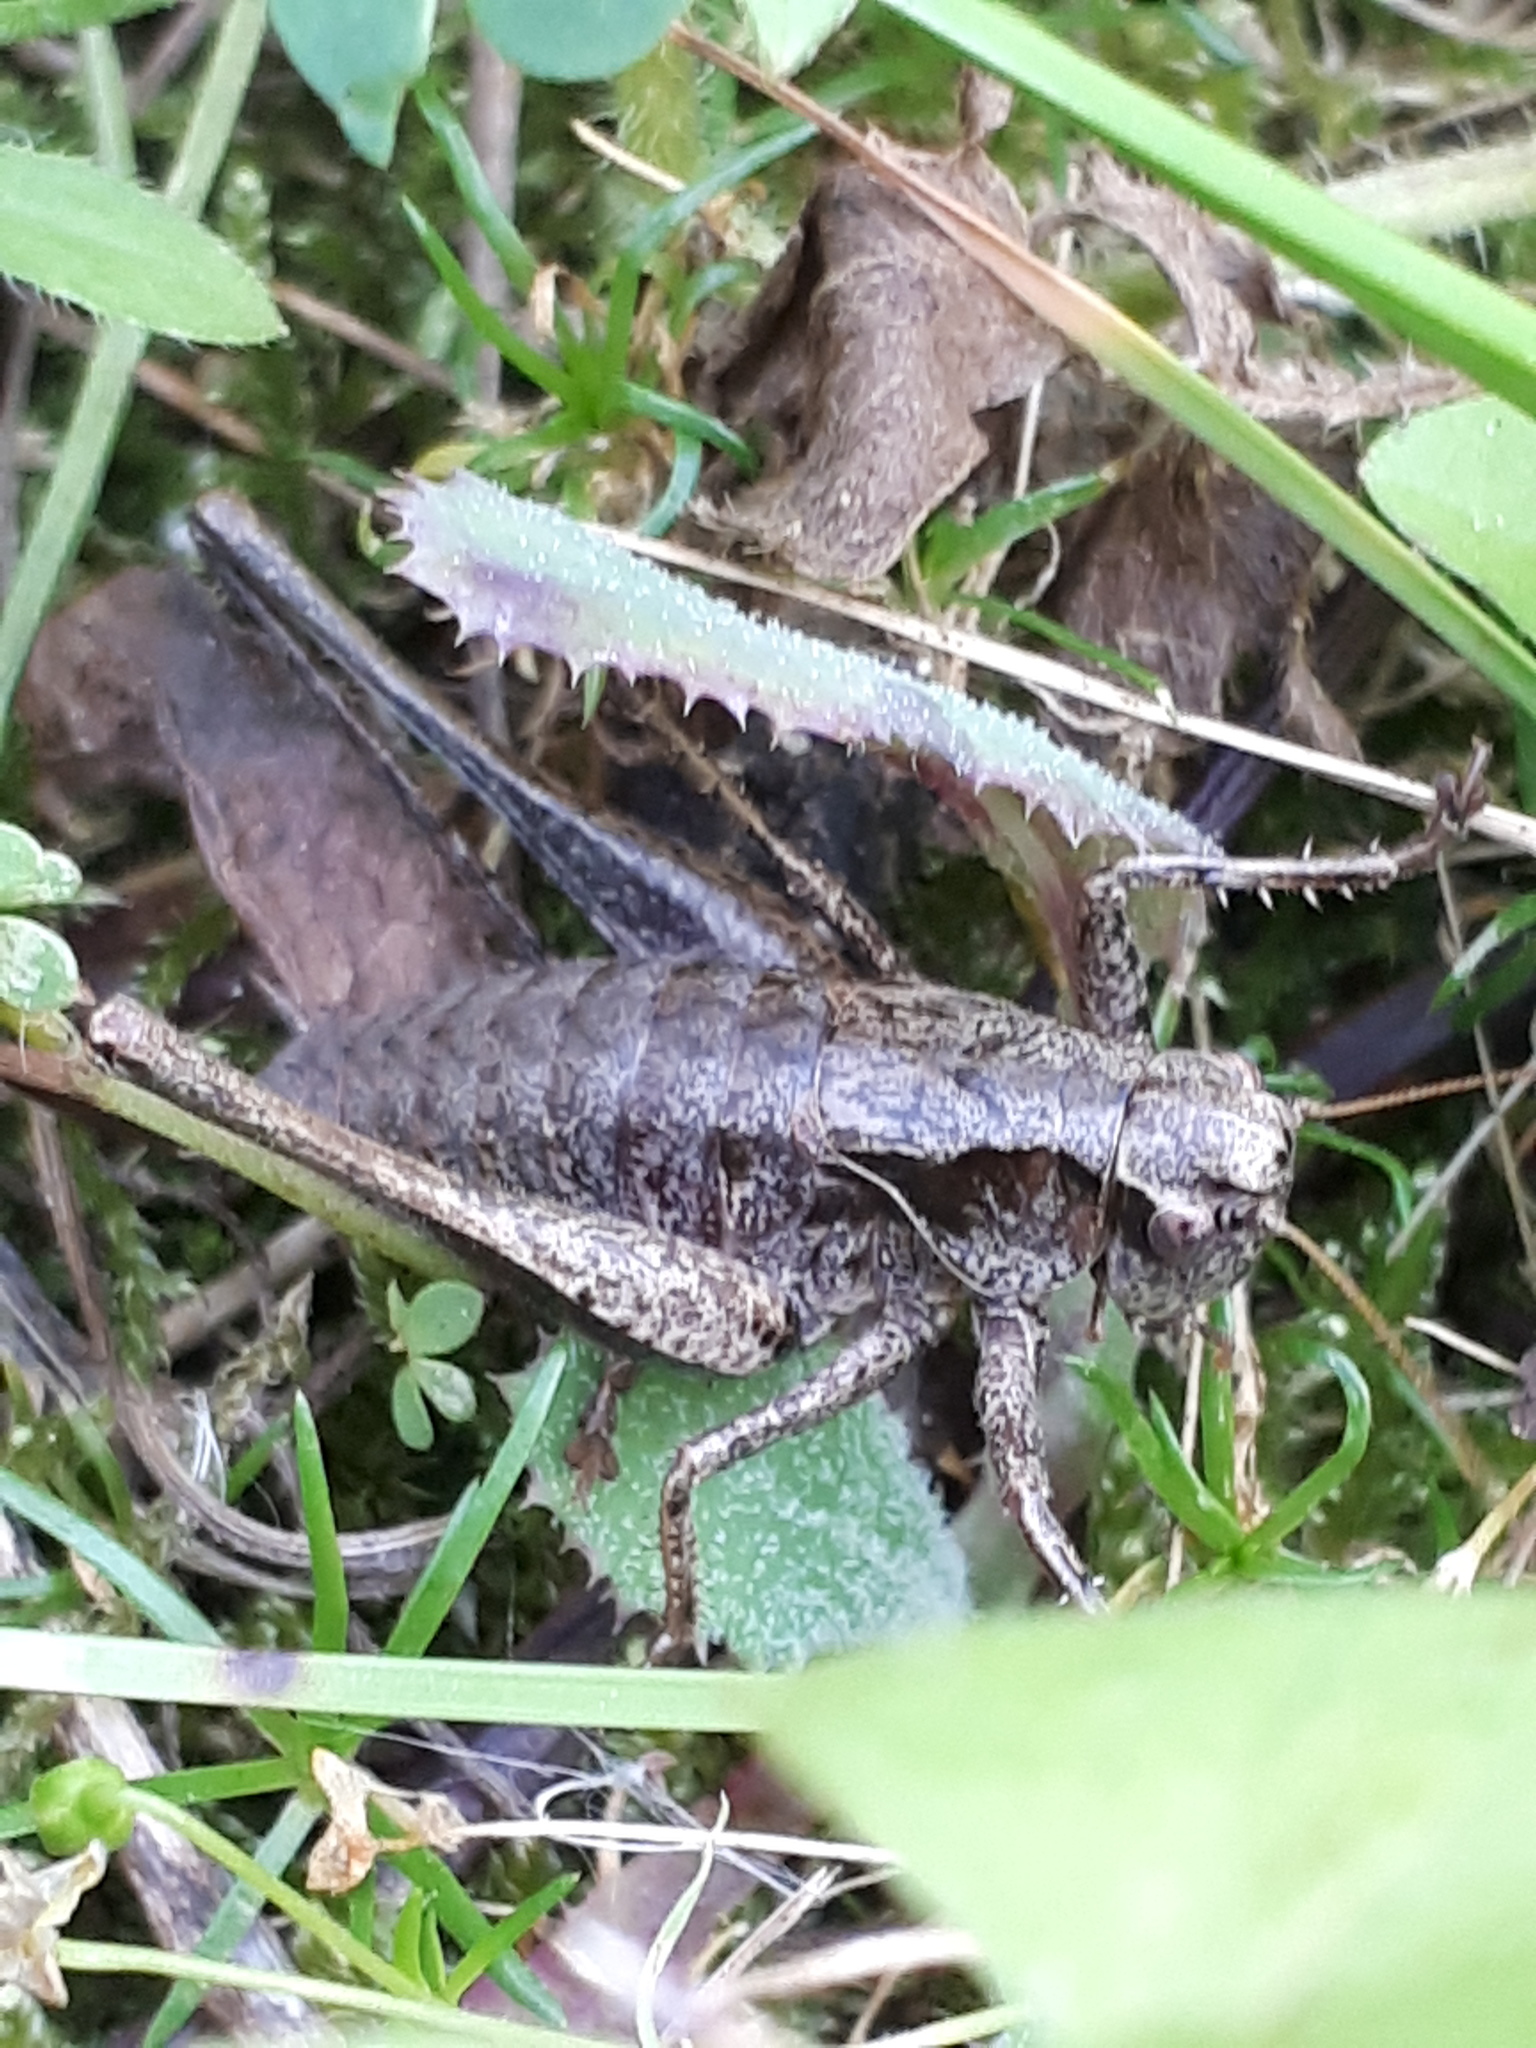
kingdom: Animalia
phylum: Arthropoda
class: Insecta
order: Orthoptera
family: Tettigoniidae
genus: Pholidoptera
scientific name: Pholidoptera griseoaptera
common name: Dark bush-cricket
